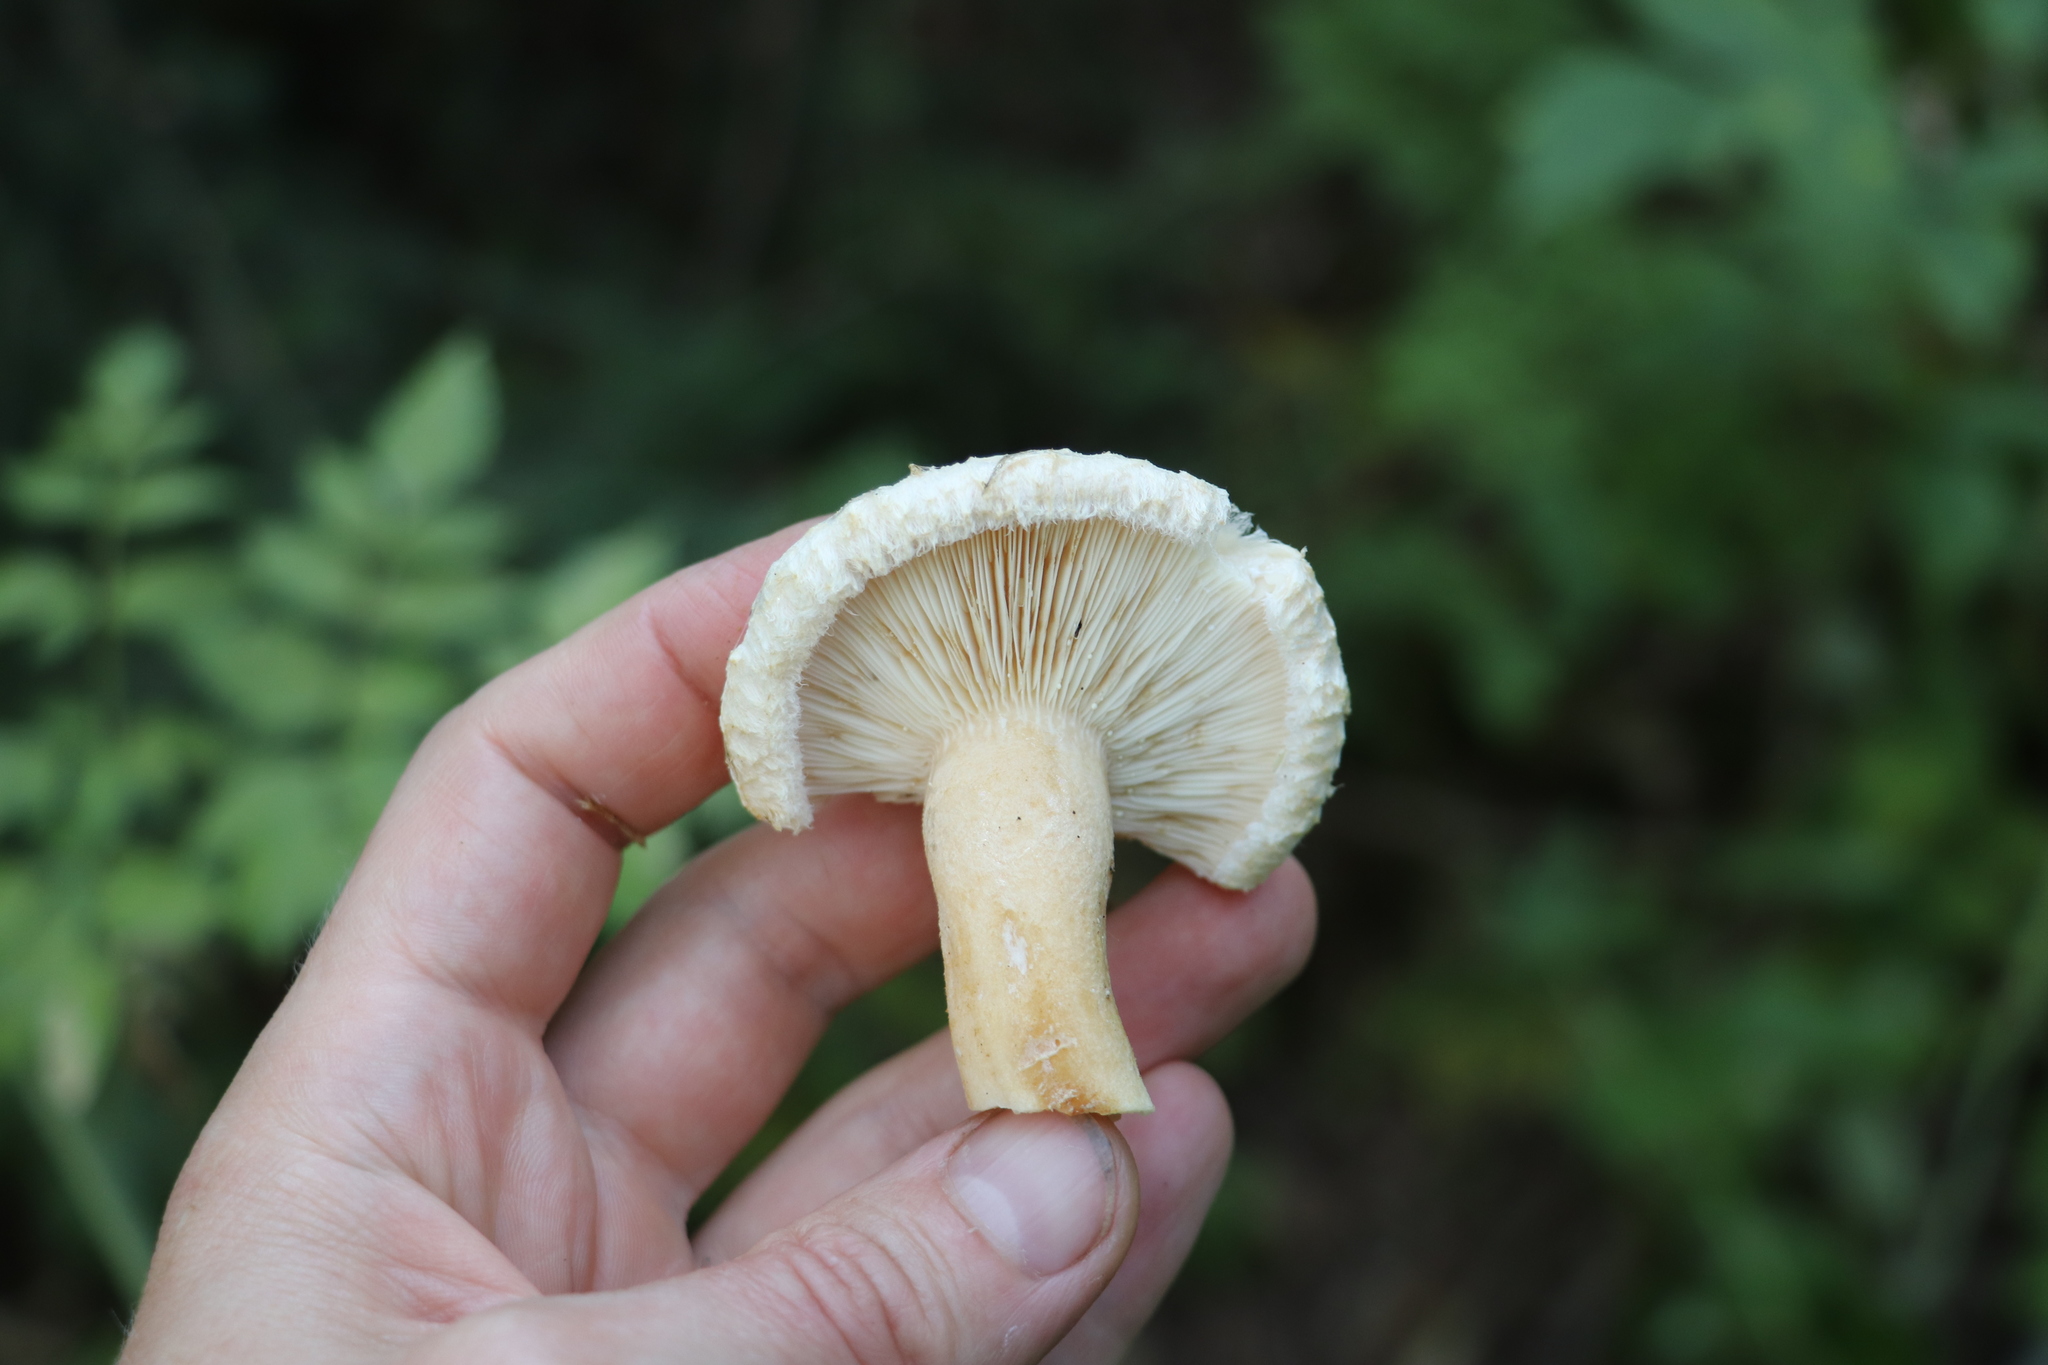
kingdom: Fungi
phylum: Basidiomycota
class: Agaricomycetes
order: Russulales
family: Russulaceae
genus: Lactarius
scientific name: Lactarius pubescens
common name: Bearded milkcap
